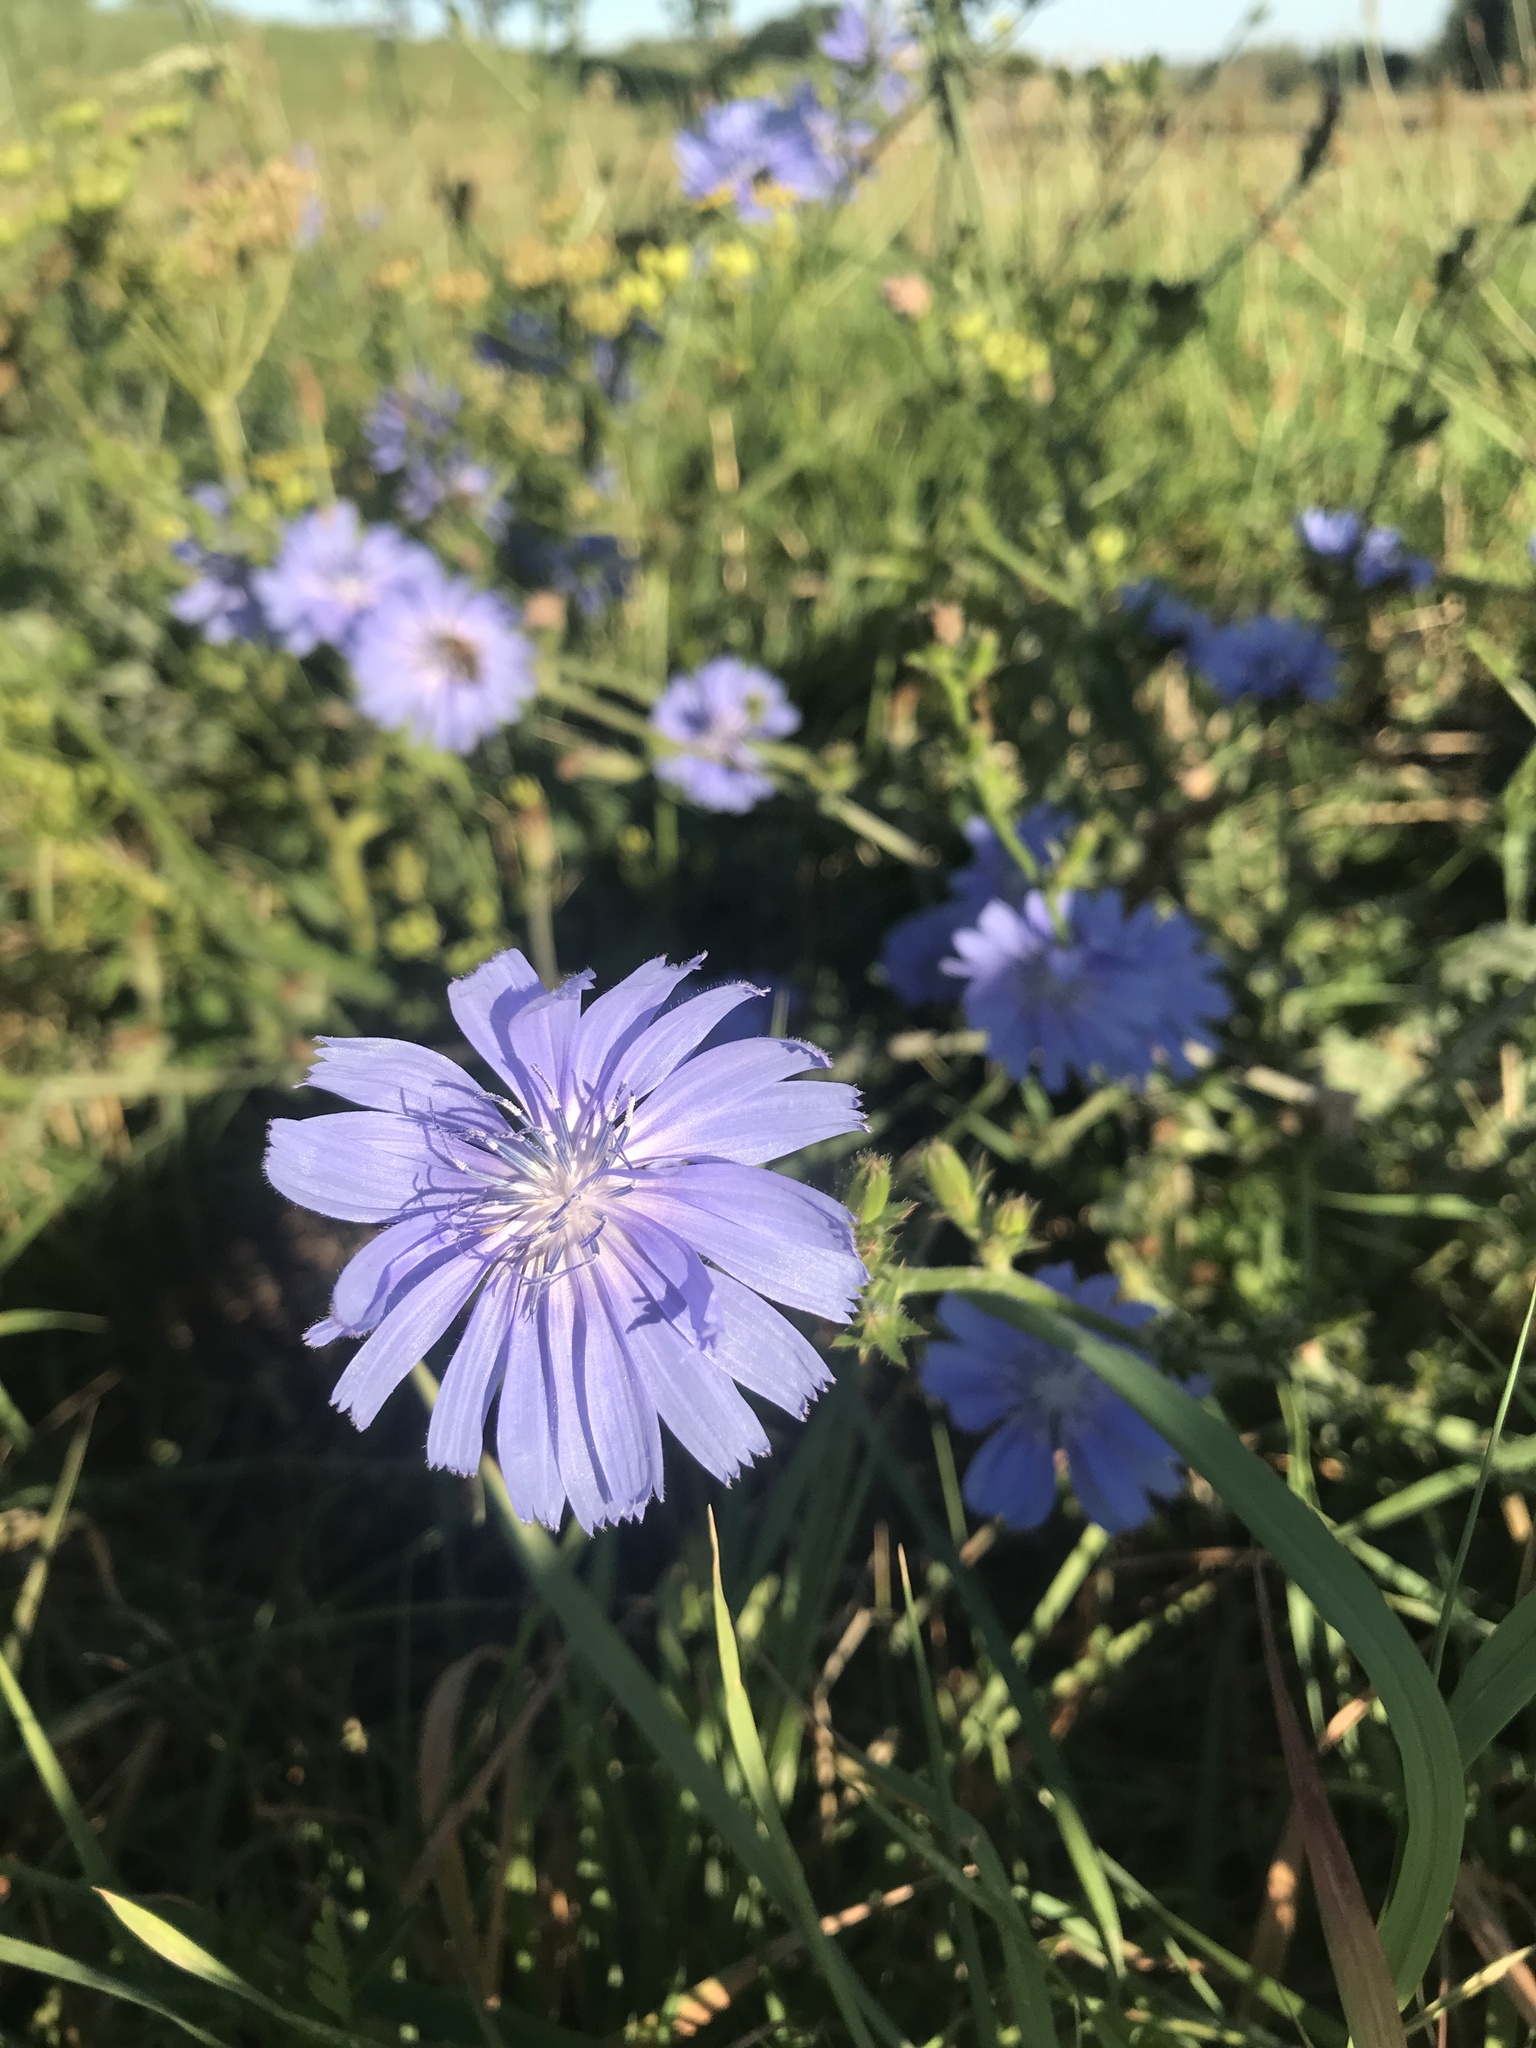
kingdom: Plantae
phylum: Tracheophyta
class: Magnoliopsida
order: Asterales
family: Asteraceae
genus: Cichorium
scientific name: Cichorium intybus
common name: Chicory
